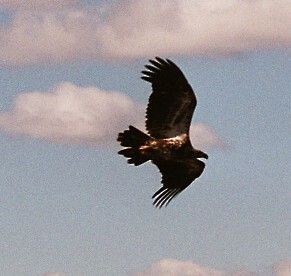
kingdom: Animalia
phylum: Chordata
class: Aves
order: Accipitriformes
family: Accipitridae
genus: Haliaeetus
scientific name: Haliaeetus leucocephalus
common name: Bald eagle
